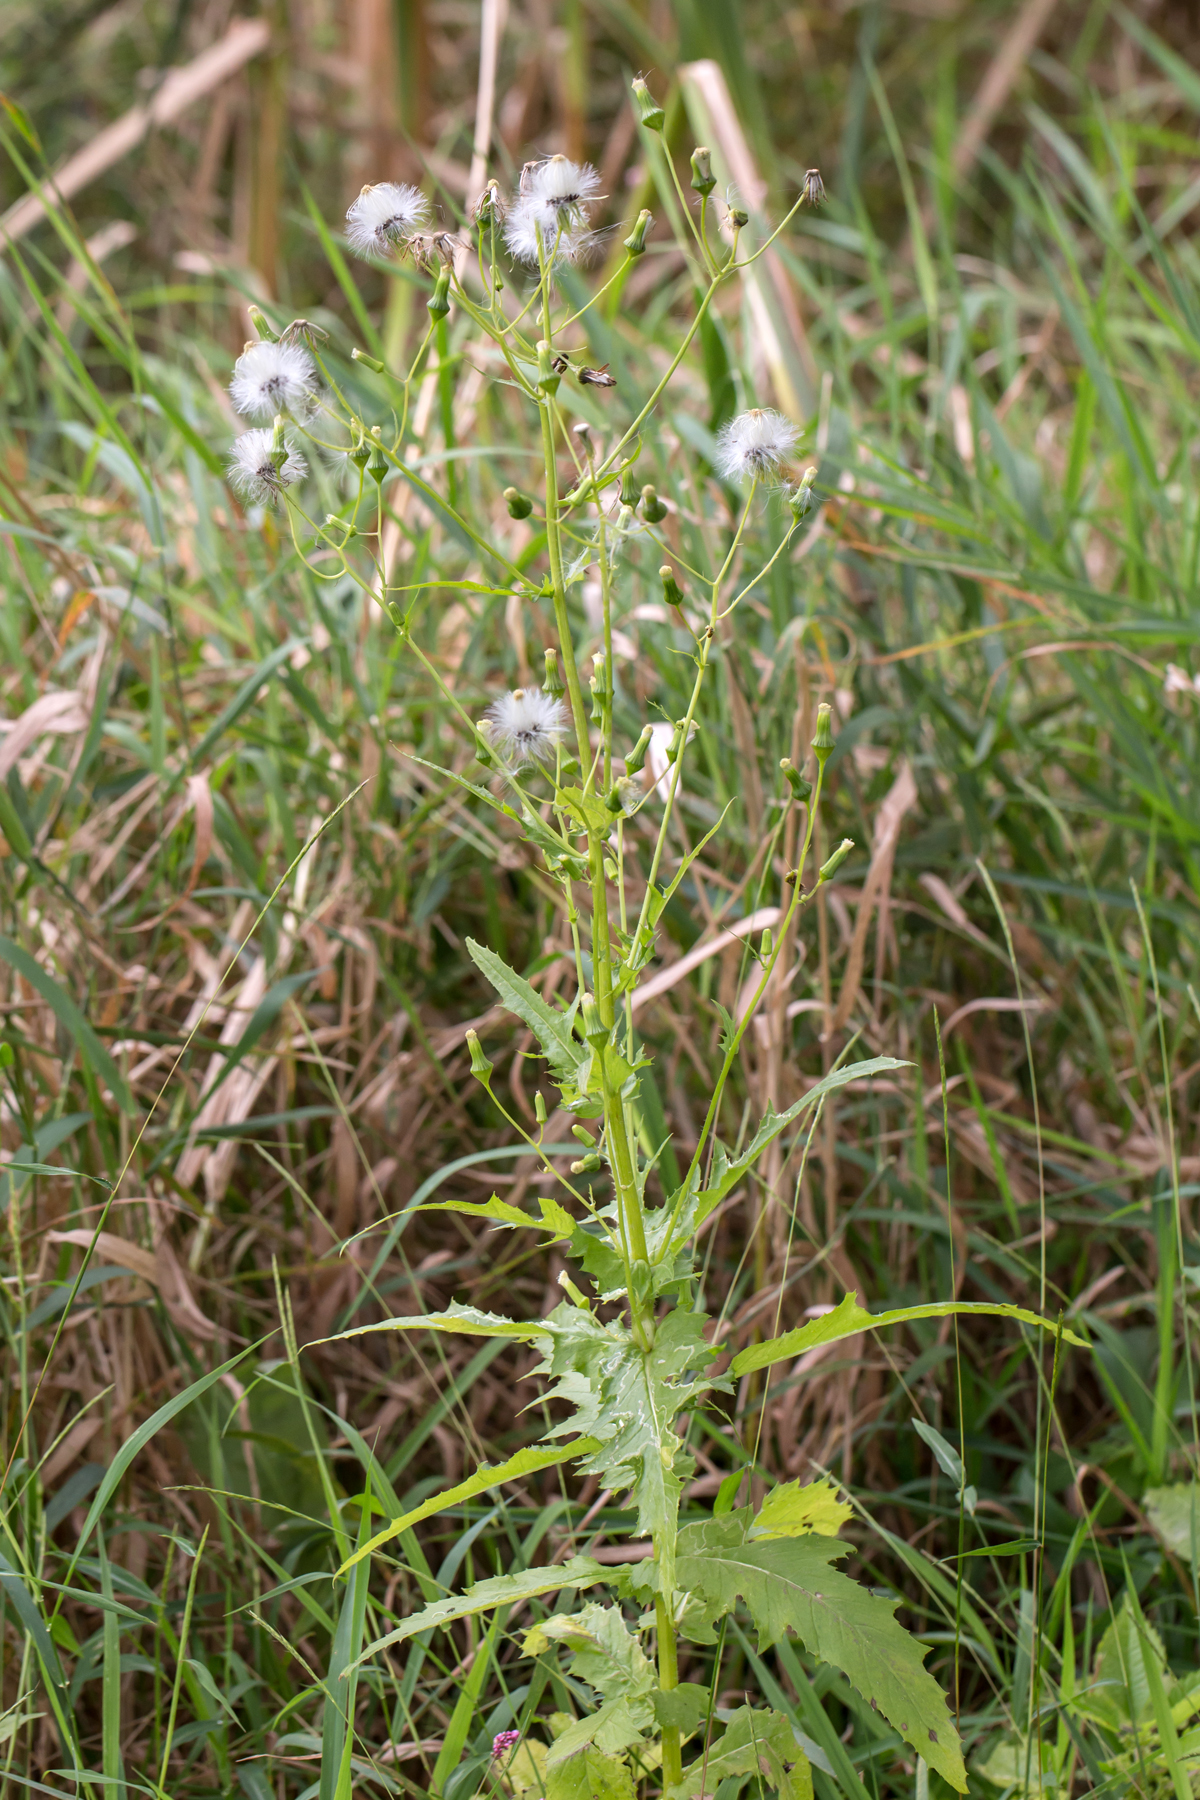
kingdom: Plantae
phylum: Tracheophyta
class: Magnoliopsida
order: Asterales
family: Asteraceae
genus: Erechtites
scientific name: Erechtites hieraciifolius
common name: American burnweed
